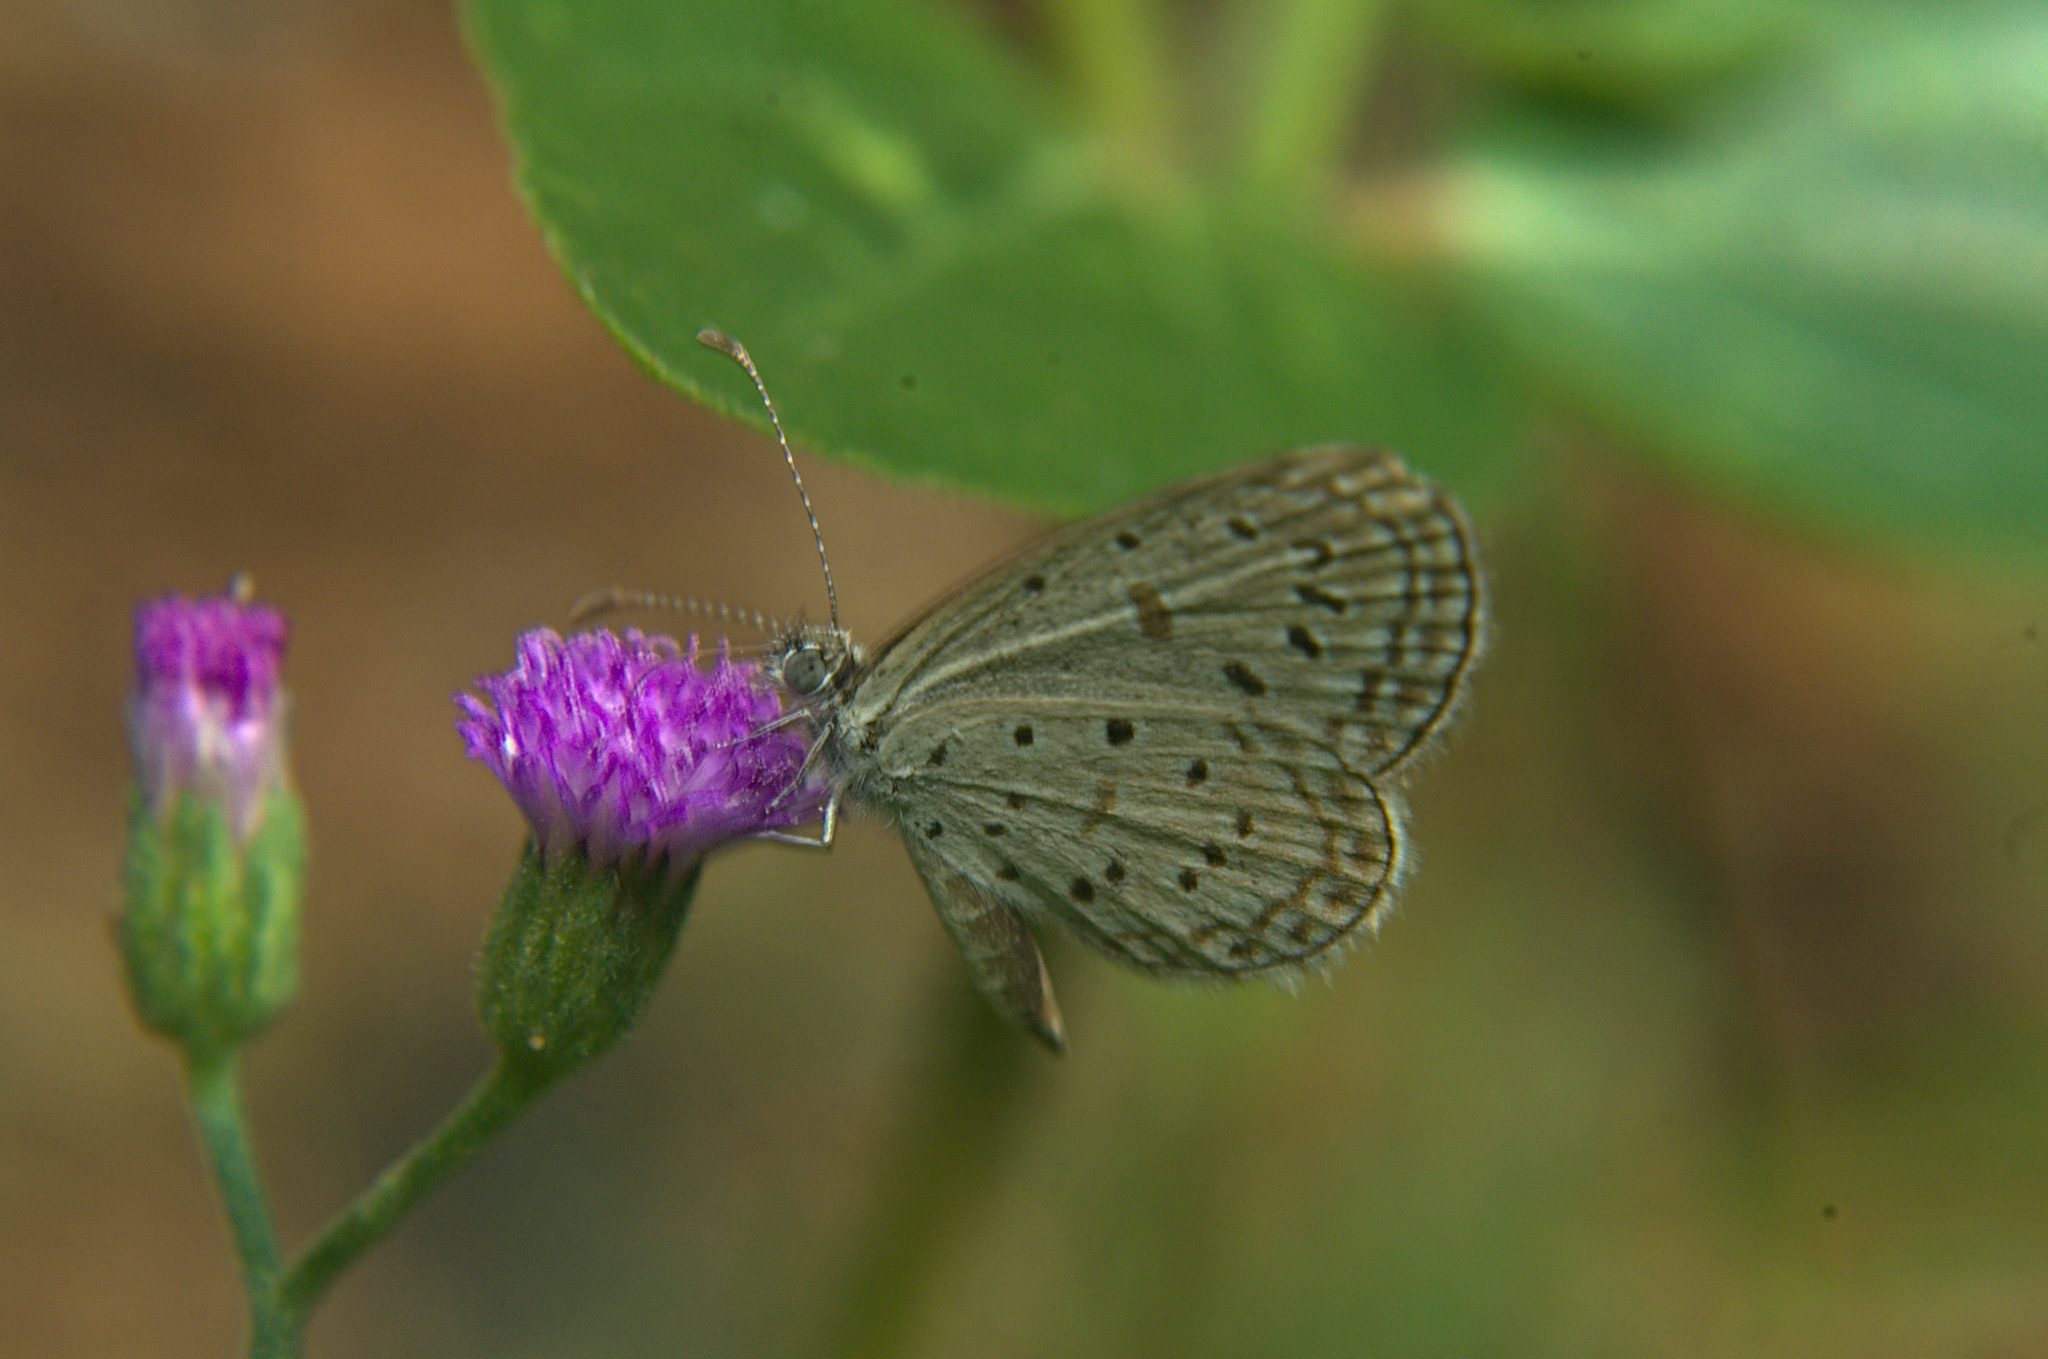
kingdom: Animalia
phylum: Arthropoda
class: Insecta
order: Lepidoptera
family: Lycaenidae
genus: Zizula
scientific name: Zizula hylax
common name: Gaika blue
